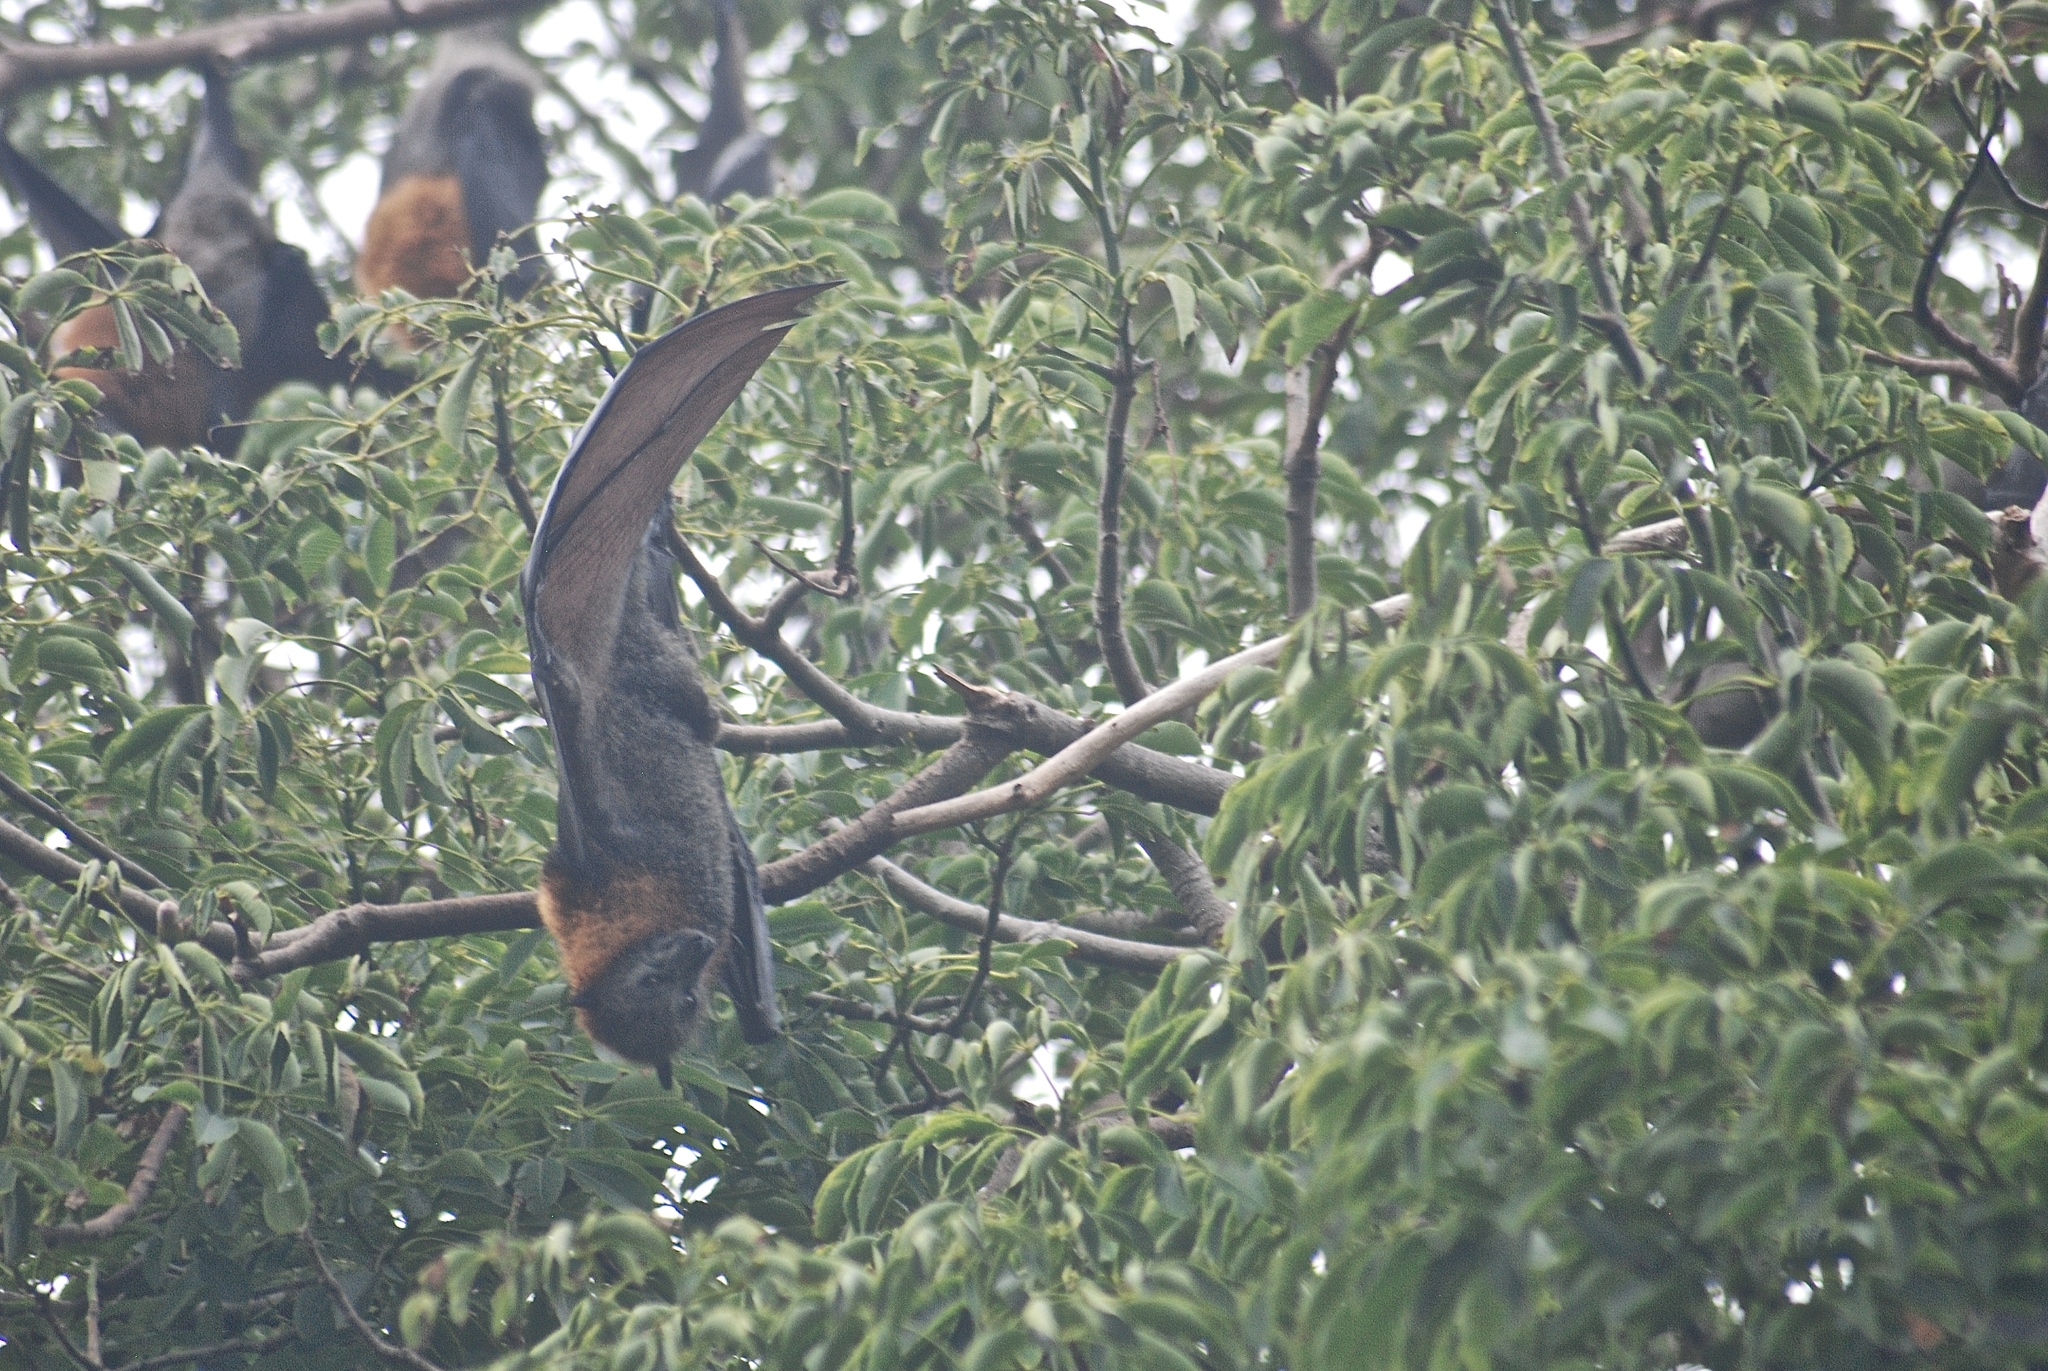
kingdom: Animalia
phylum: Chordata
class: Mammalia
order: Chiroptera
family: Pteropodidae
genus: Pteropus
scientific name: Pteropus poliocephalus
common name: Gray-headed flying fox
